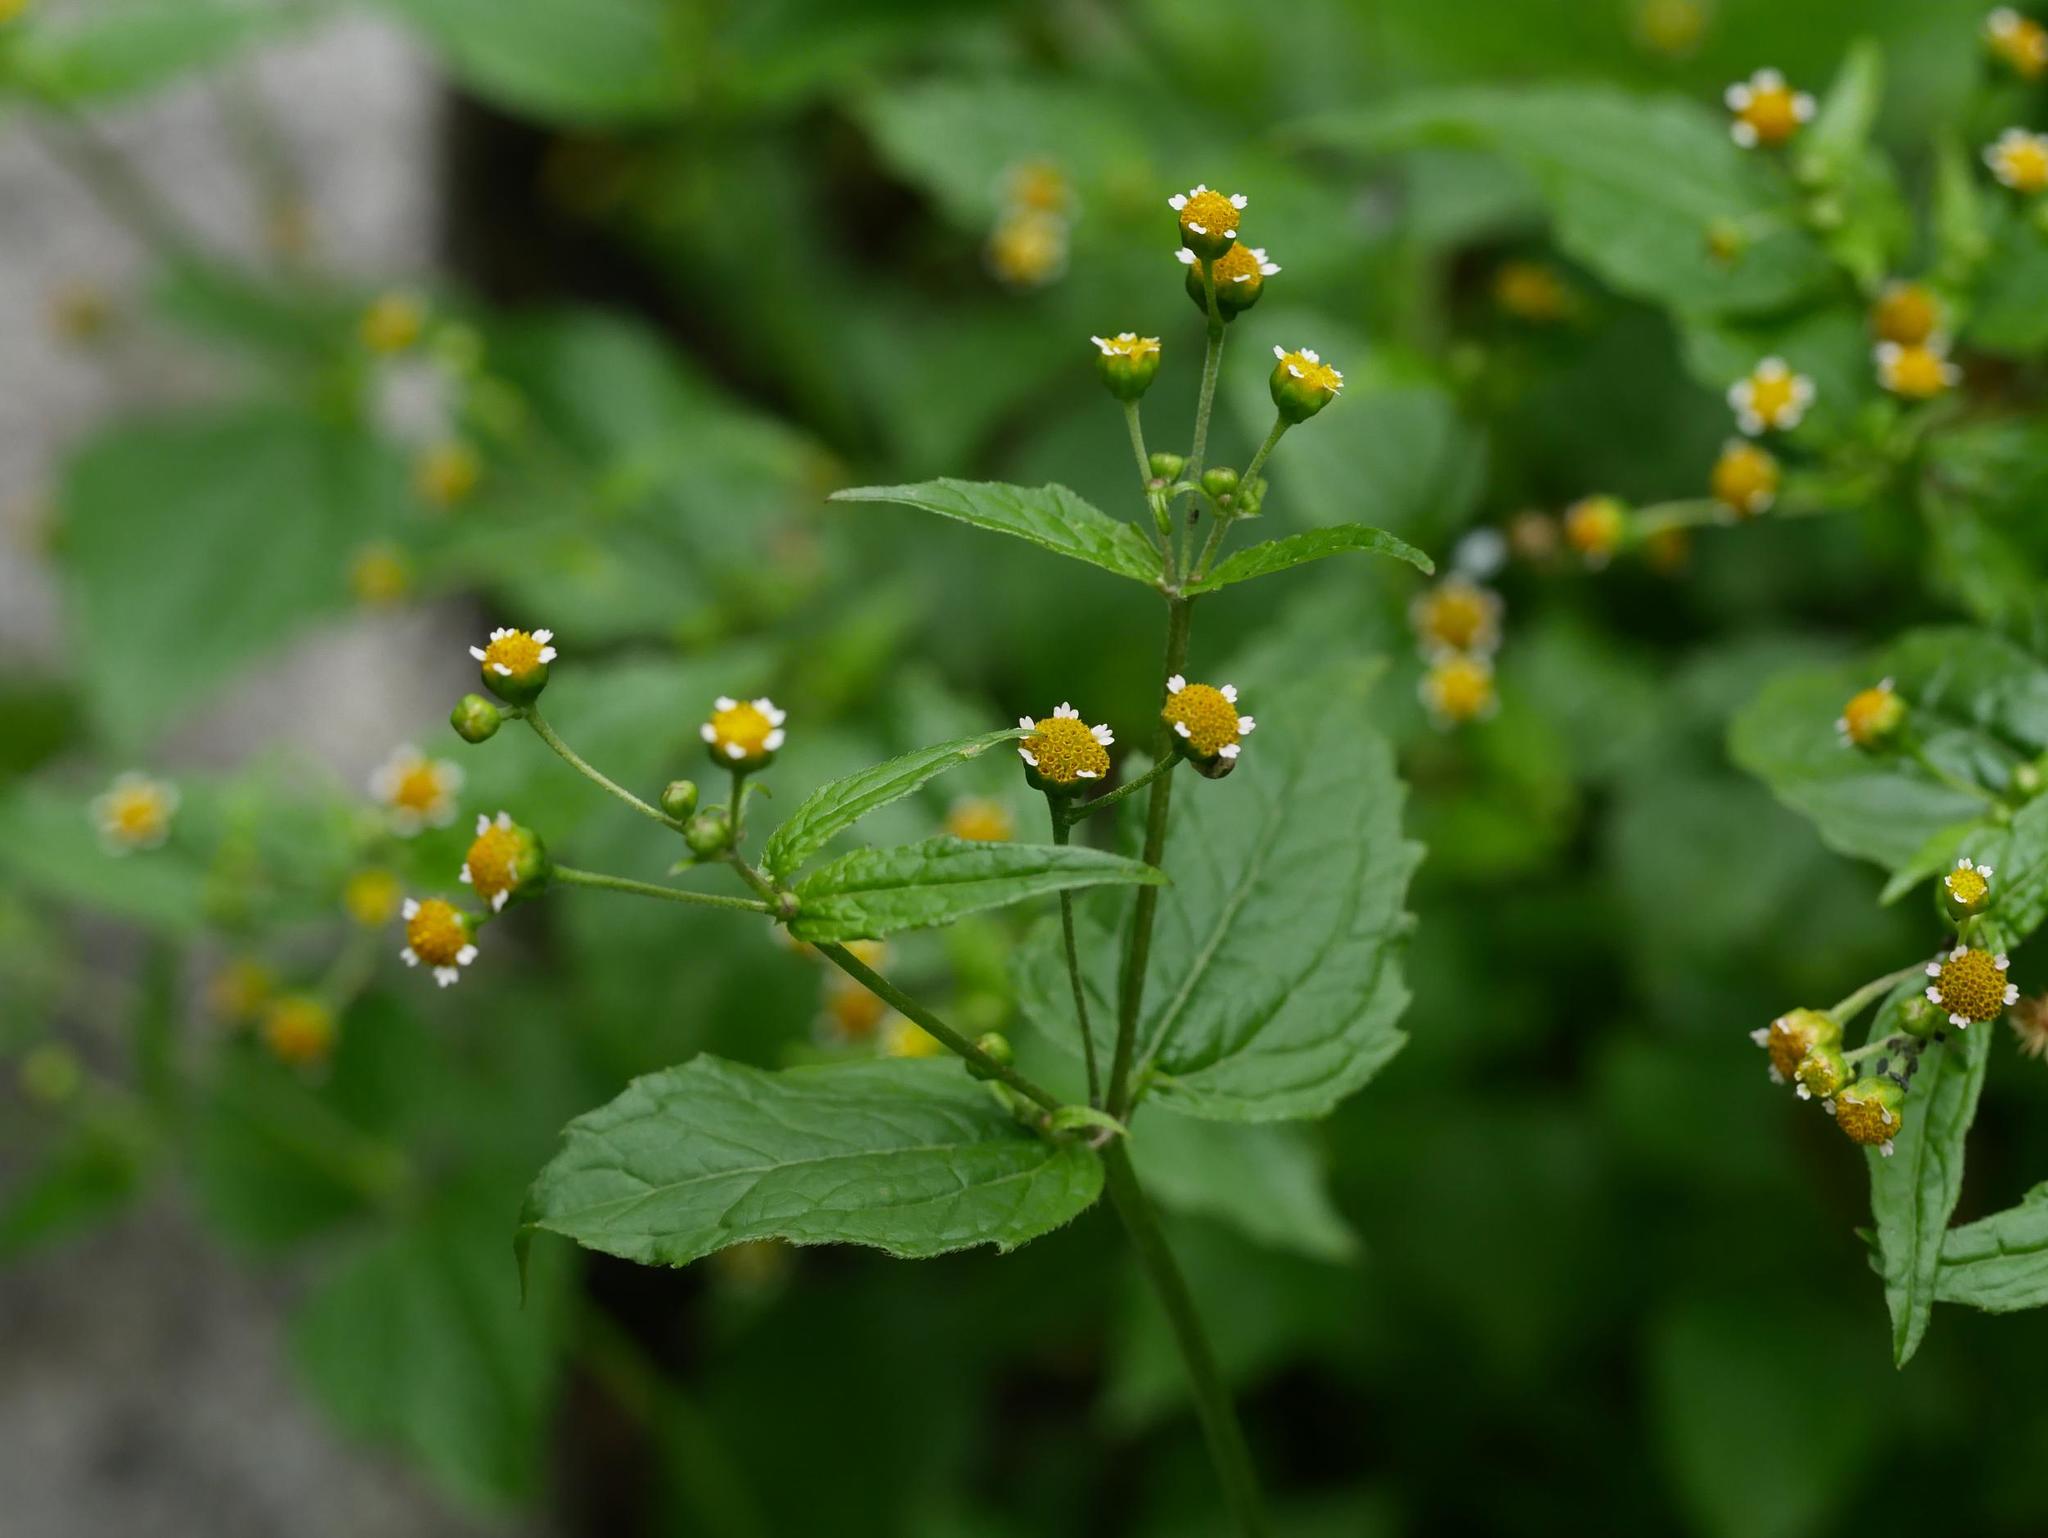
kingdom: Plantae
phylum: Tracheophyta
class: Magnoliopsida
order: Asterales
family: Asteraceae
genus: Galinsoga
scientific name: Galinsoga parviflora
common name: Gallant soldier
